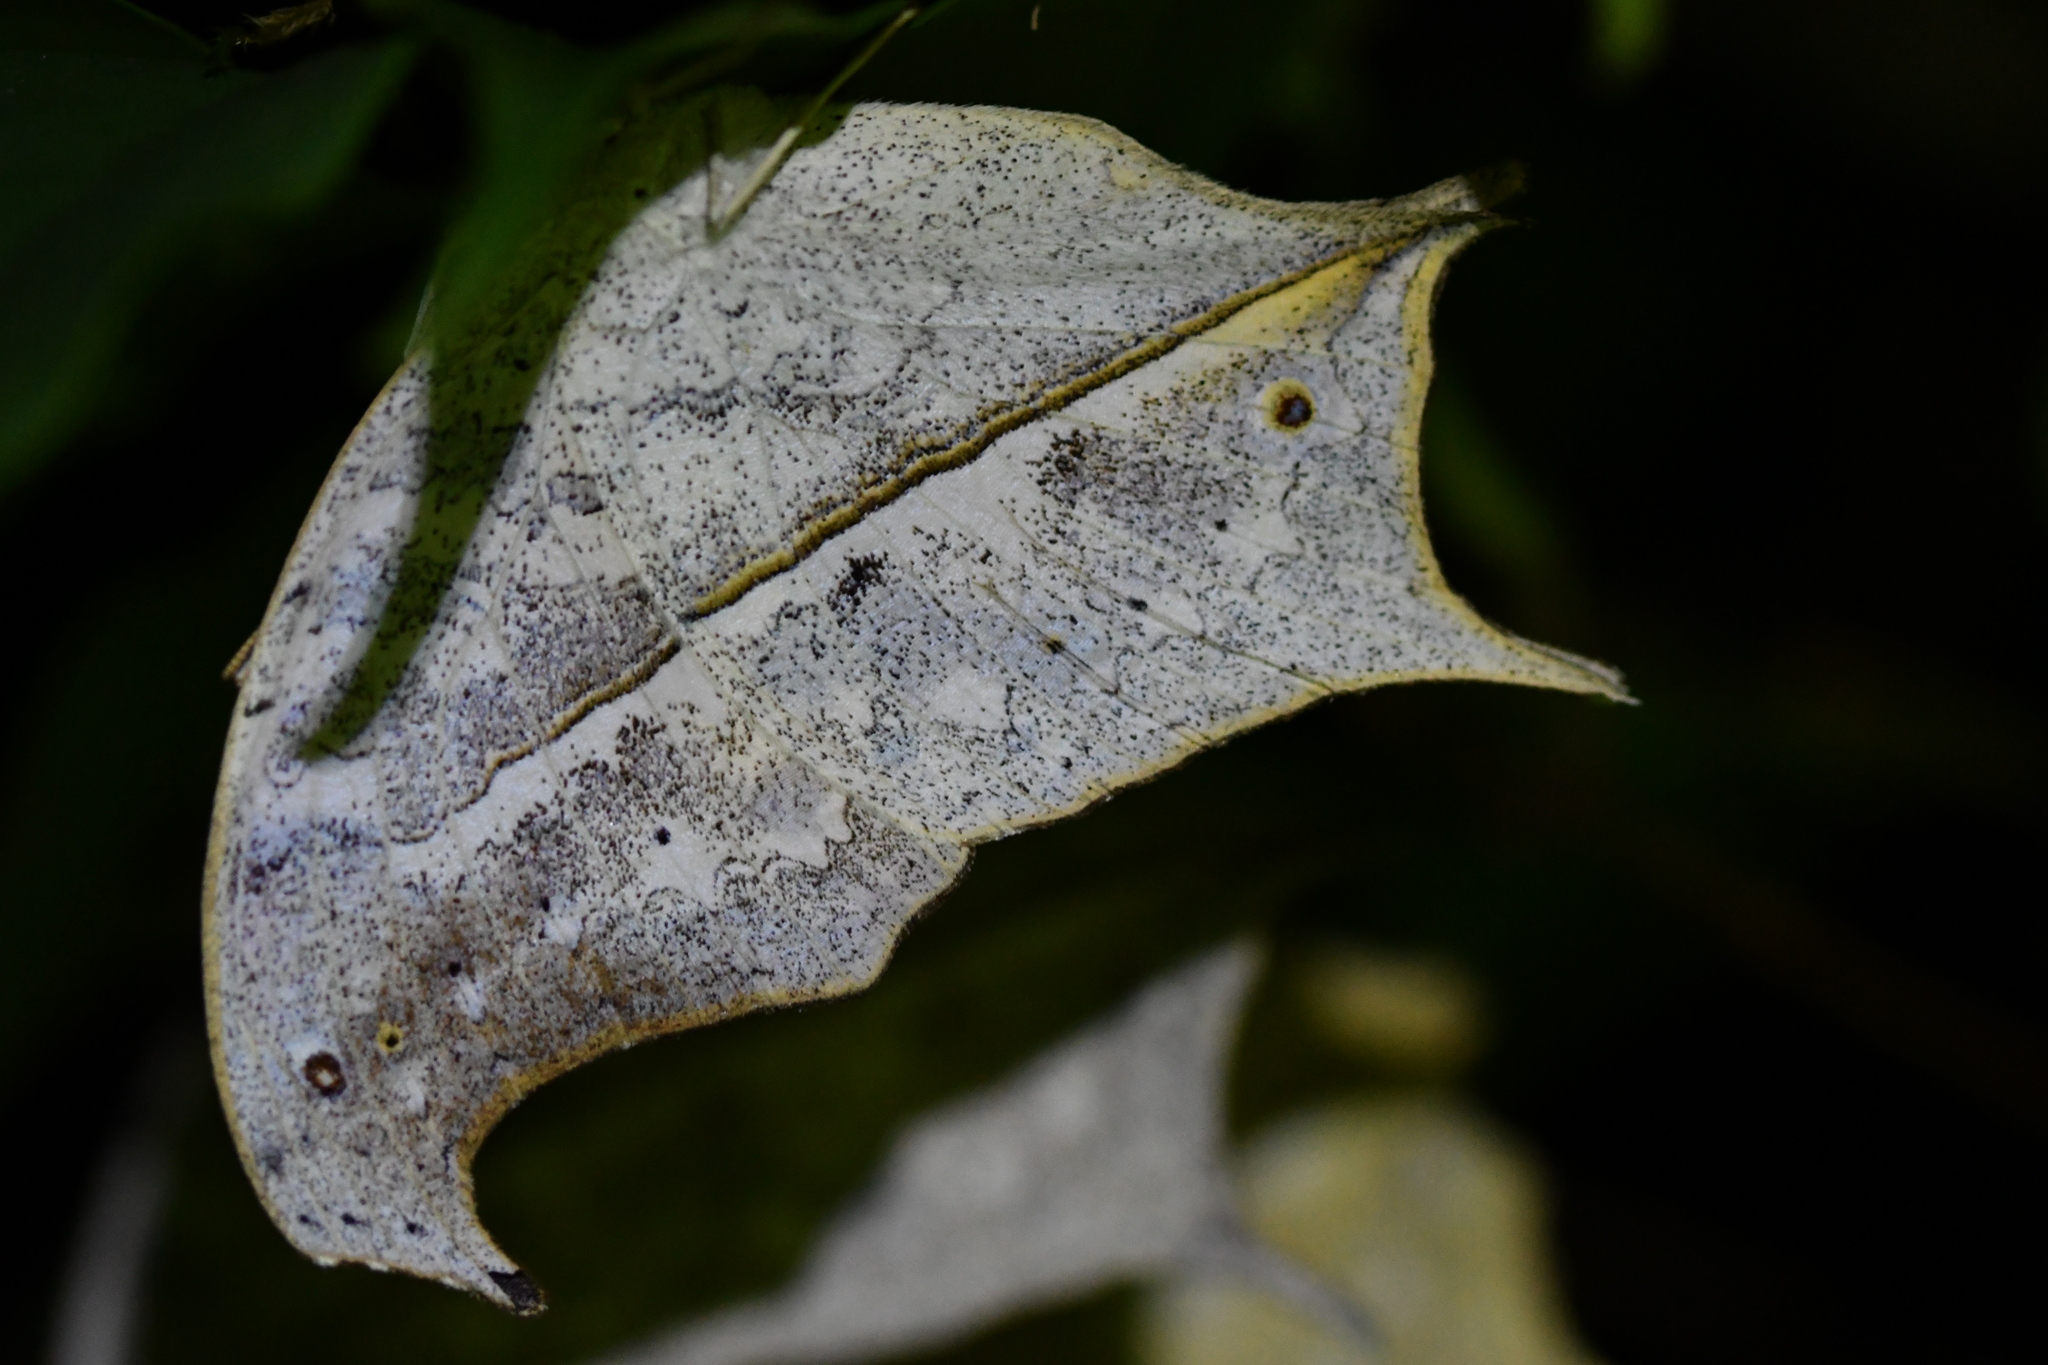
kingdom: Animalia
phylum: Arthropoda
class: Insecta
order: Lepidoptera
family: Nymphalidae
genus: Salamis
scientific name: Salamis Protogoniomorpha duprei
